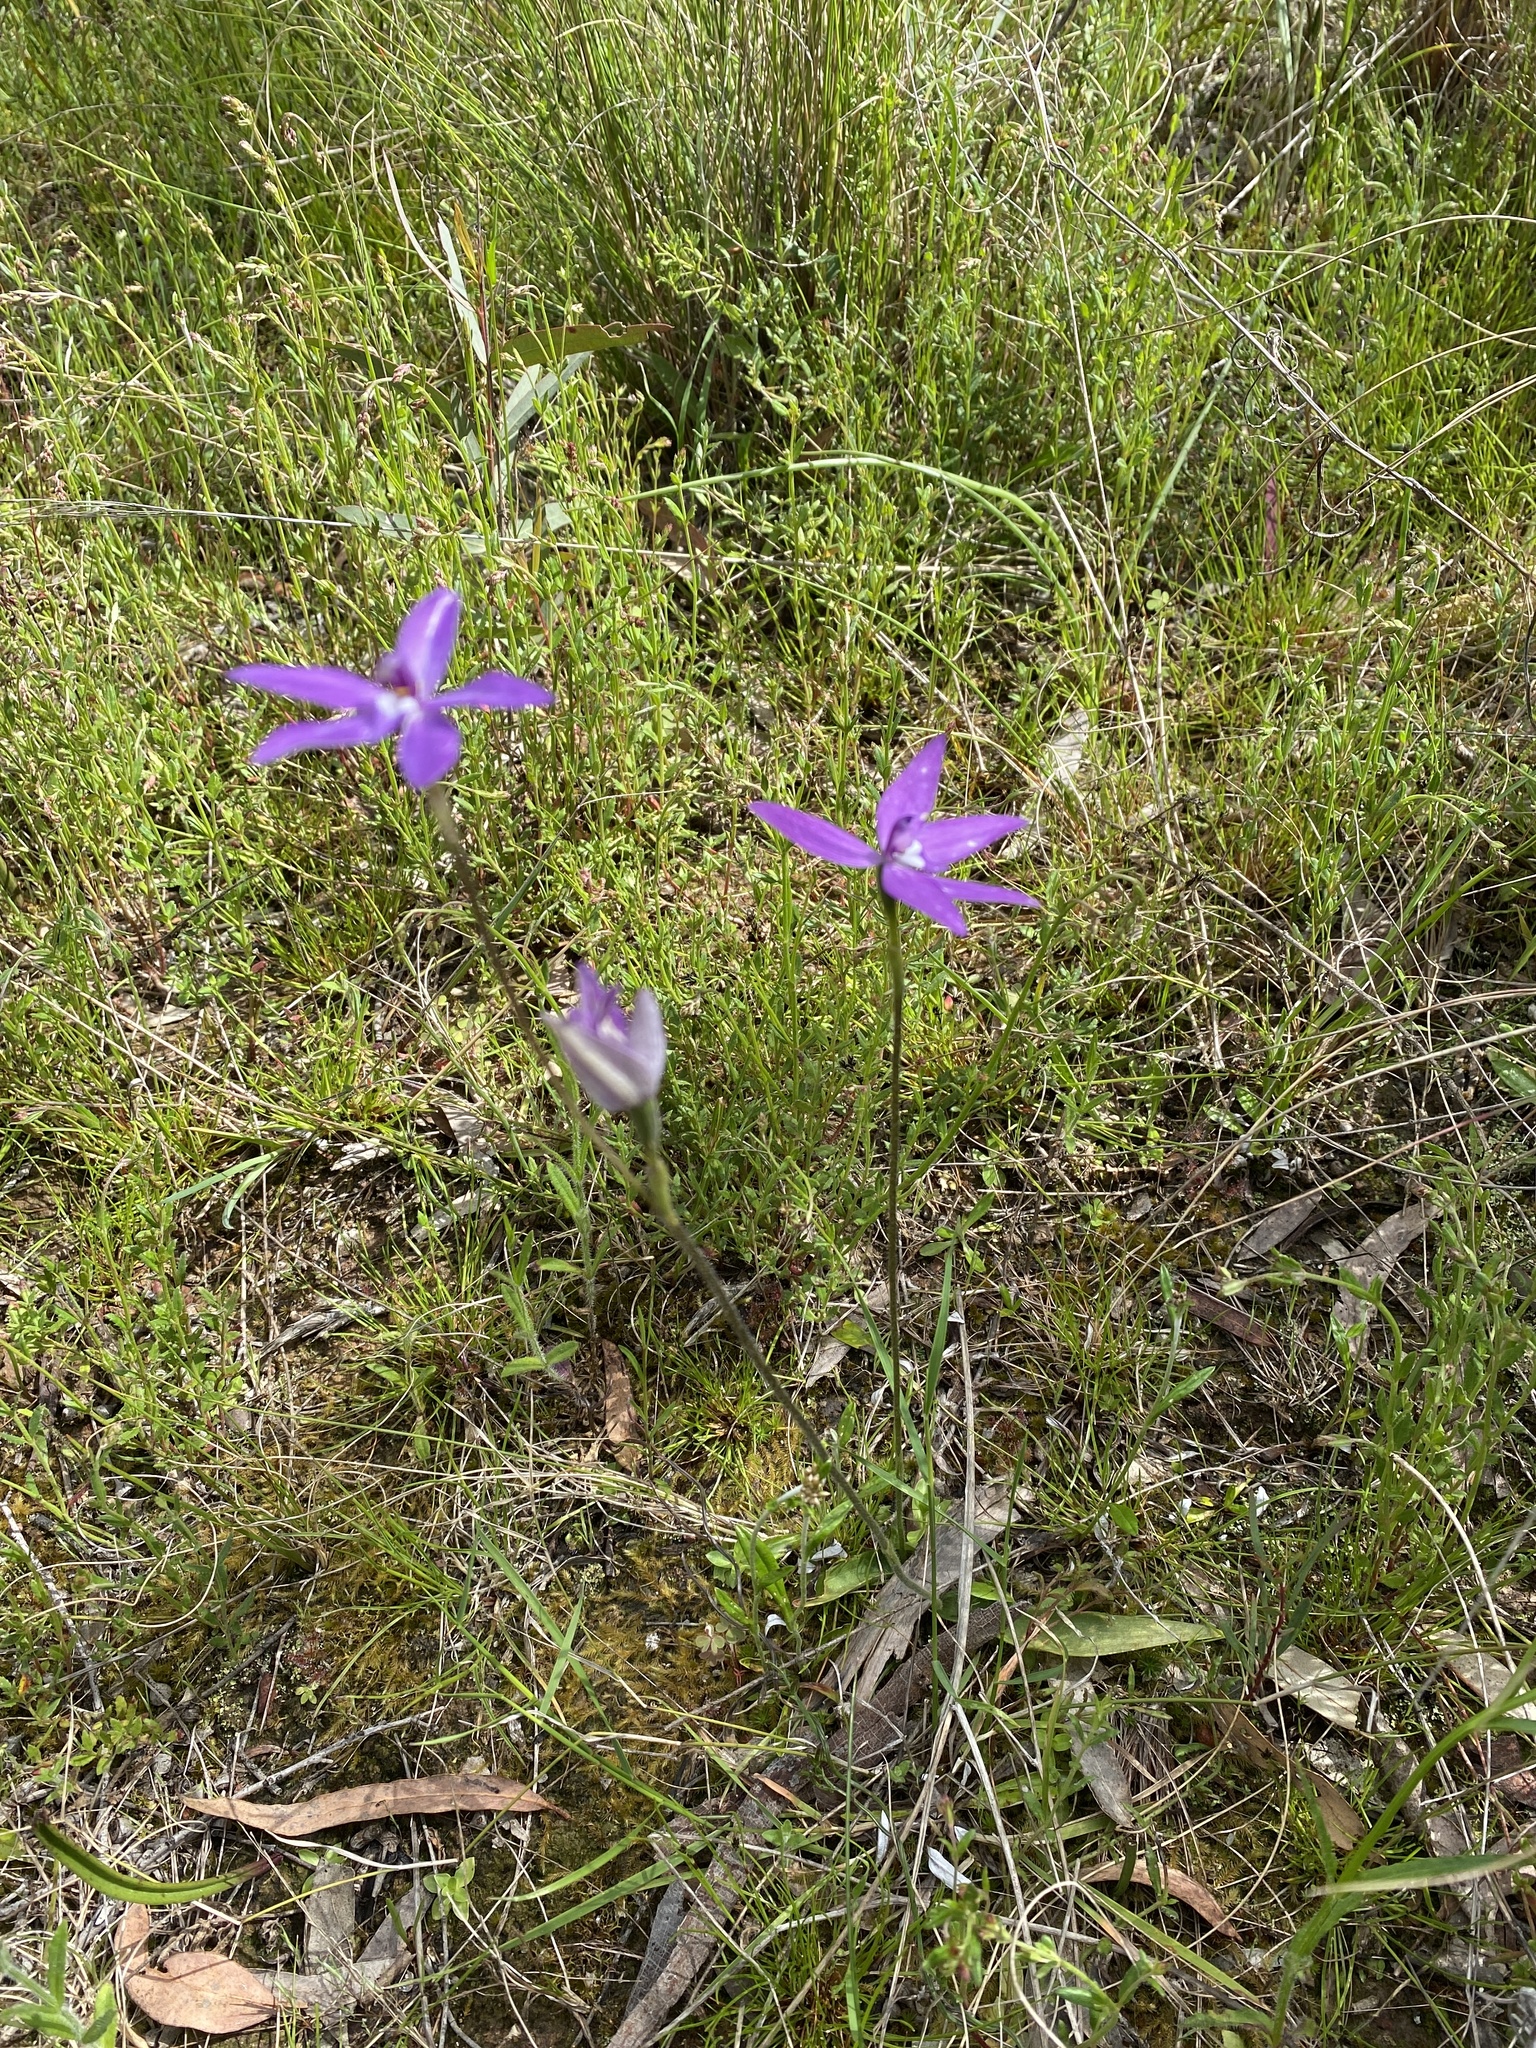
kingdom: Plantae
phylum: Tracheophyta
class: Liliopsida
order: Asparagales
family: Orchidaceae
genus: Caladenia
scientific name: Caladenia major
